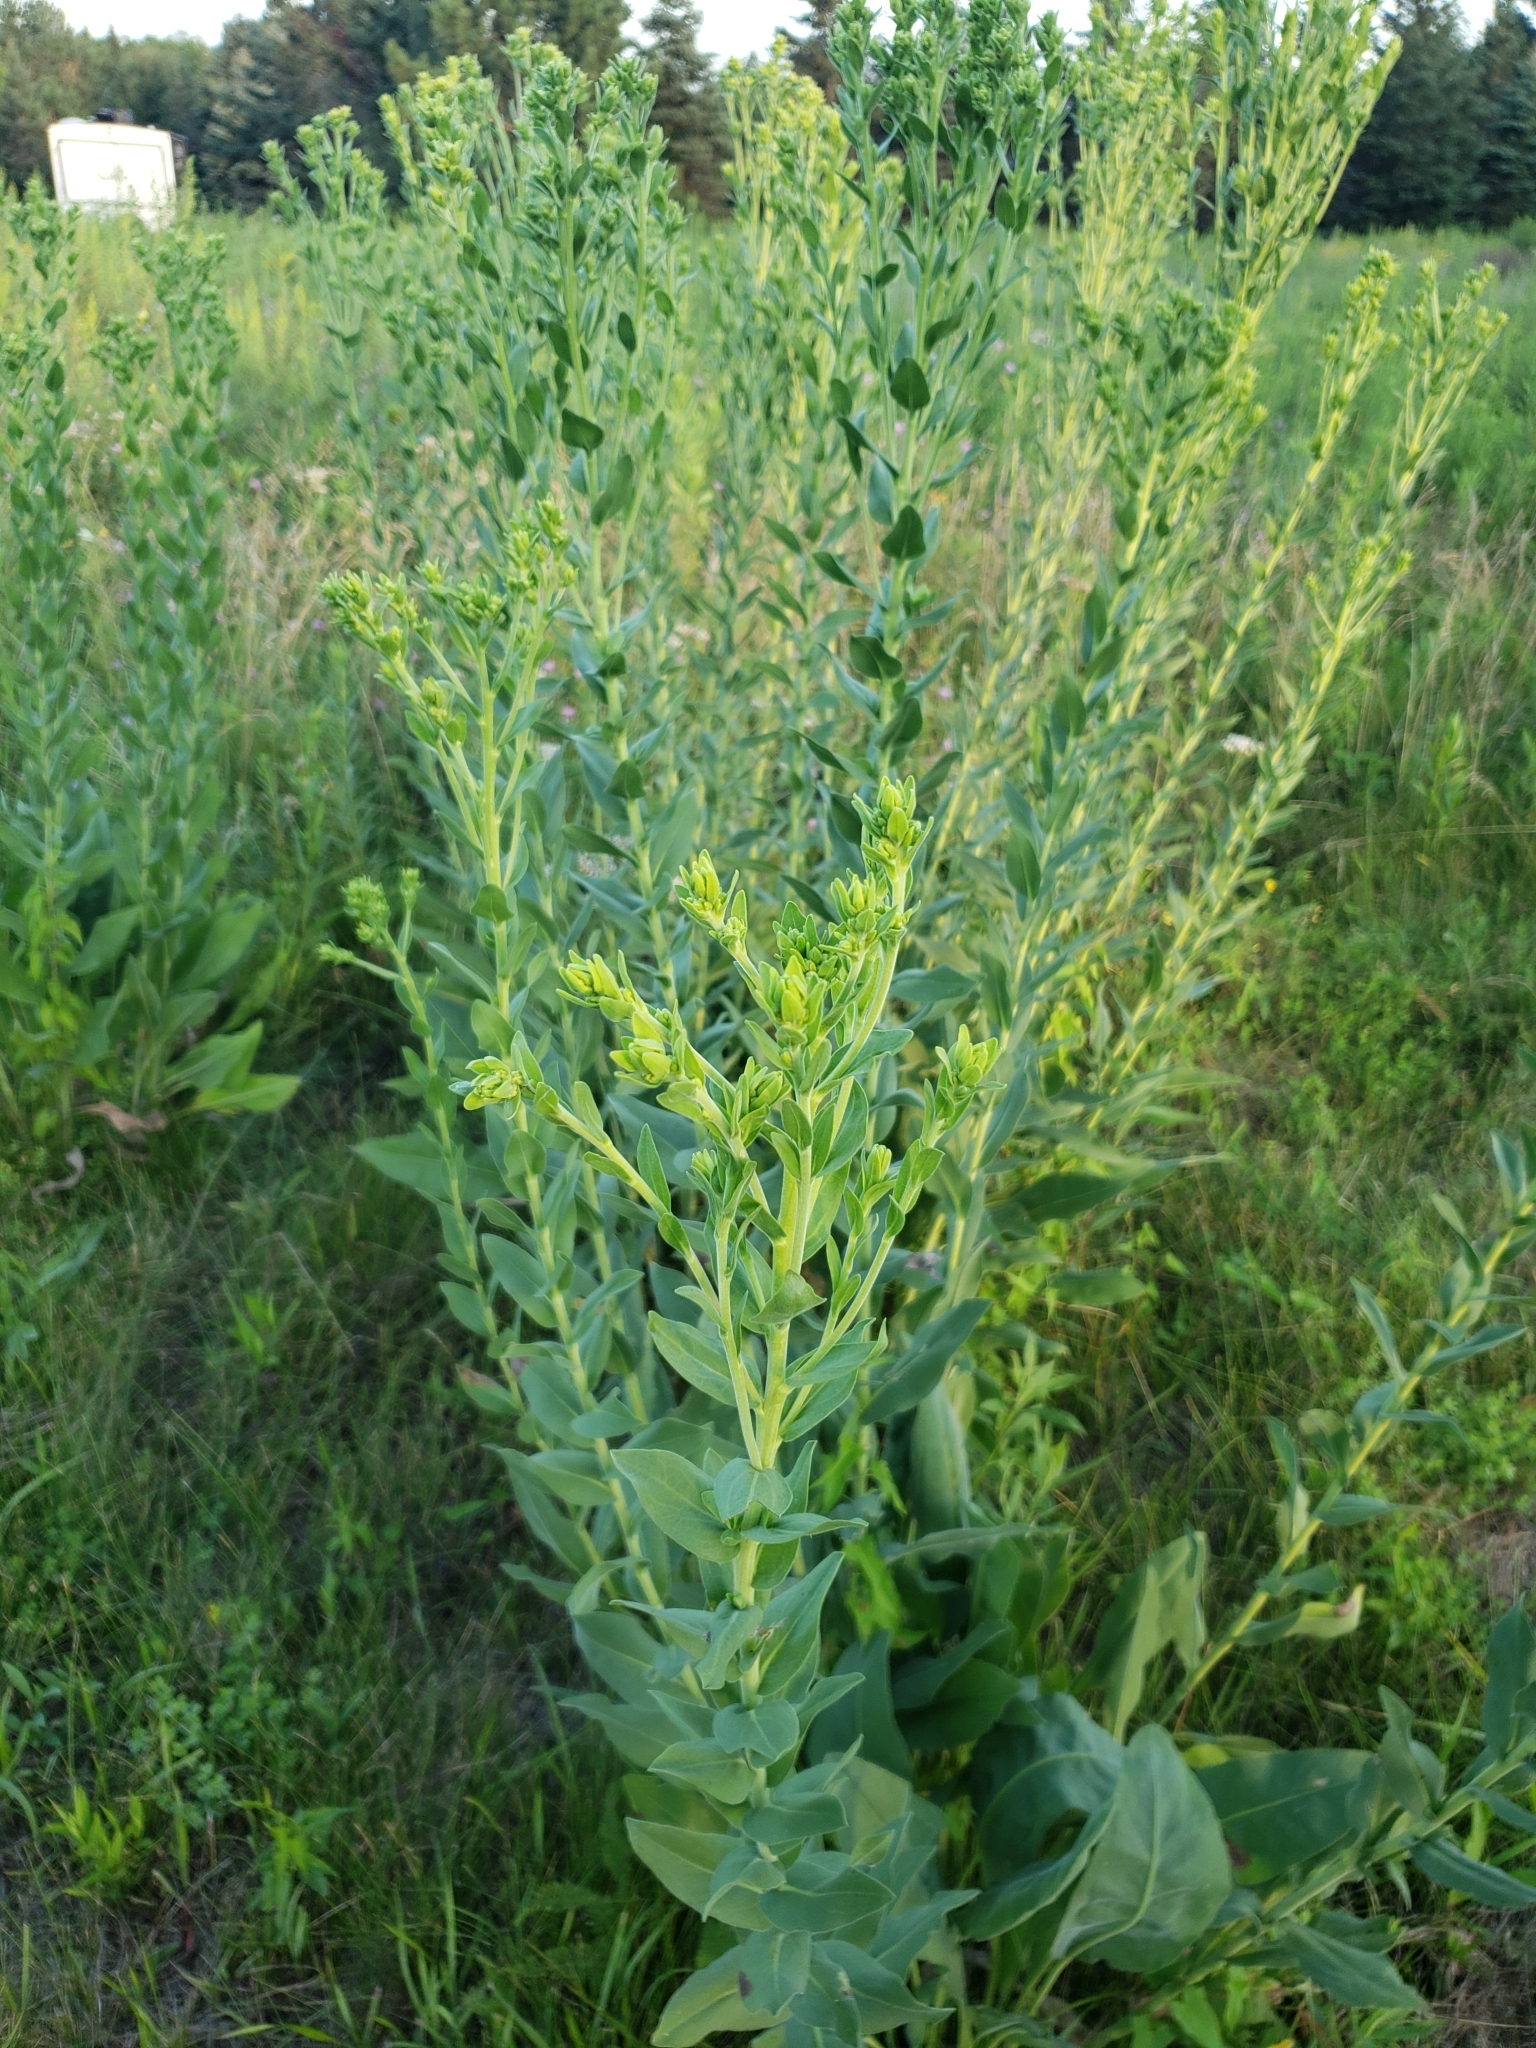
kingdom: Plantae
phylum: Tracheophyta
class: Magnoliopsida
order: Asterales
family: Asteraceae
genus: Solidago
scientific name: Solidago rigida
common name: Rigid goldenrod
